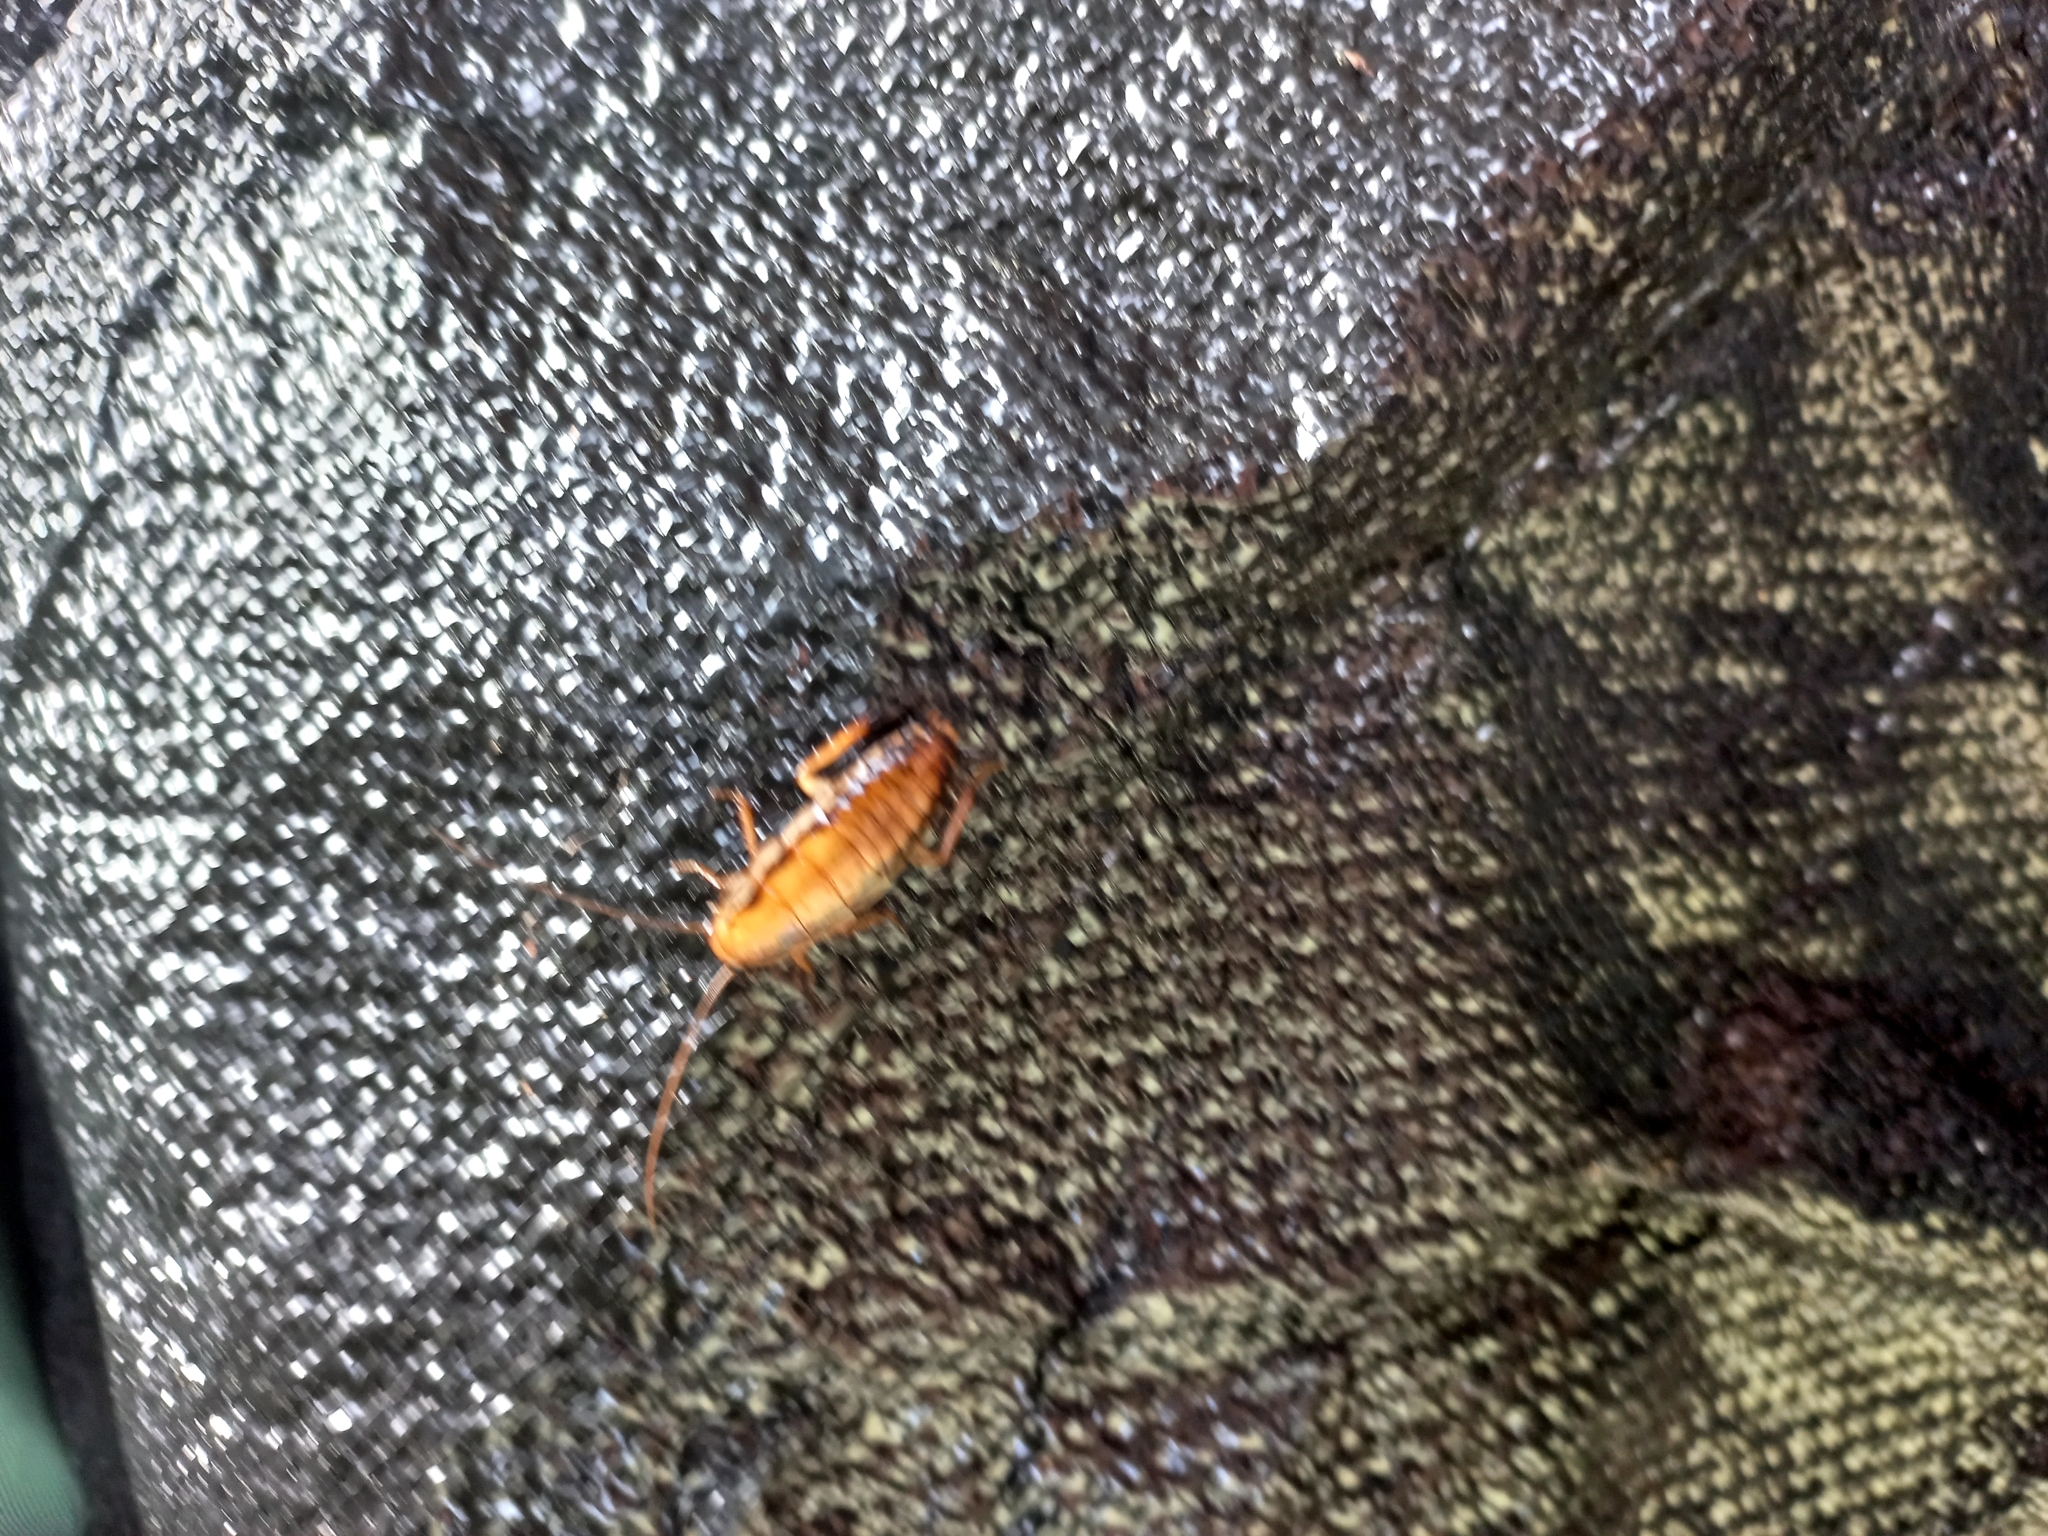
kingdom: Animalia
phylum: Arthropoda
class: Insecta
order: Blattodea
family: Blattidae
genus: Drymaplaneta
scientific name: Drymaplaneta heydeniana
